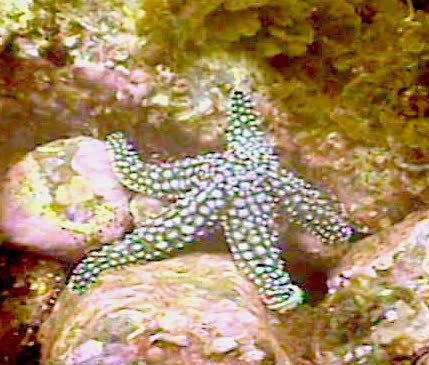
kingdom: Animalia
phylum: Echinodermata
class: Asteroidea
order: Forcipulatida
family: Asteriidae
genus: Pisaster
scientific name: Pisaster giganteus
